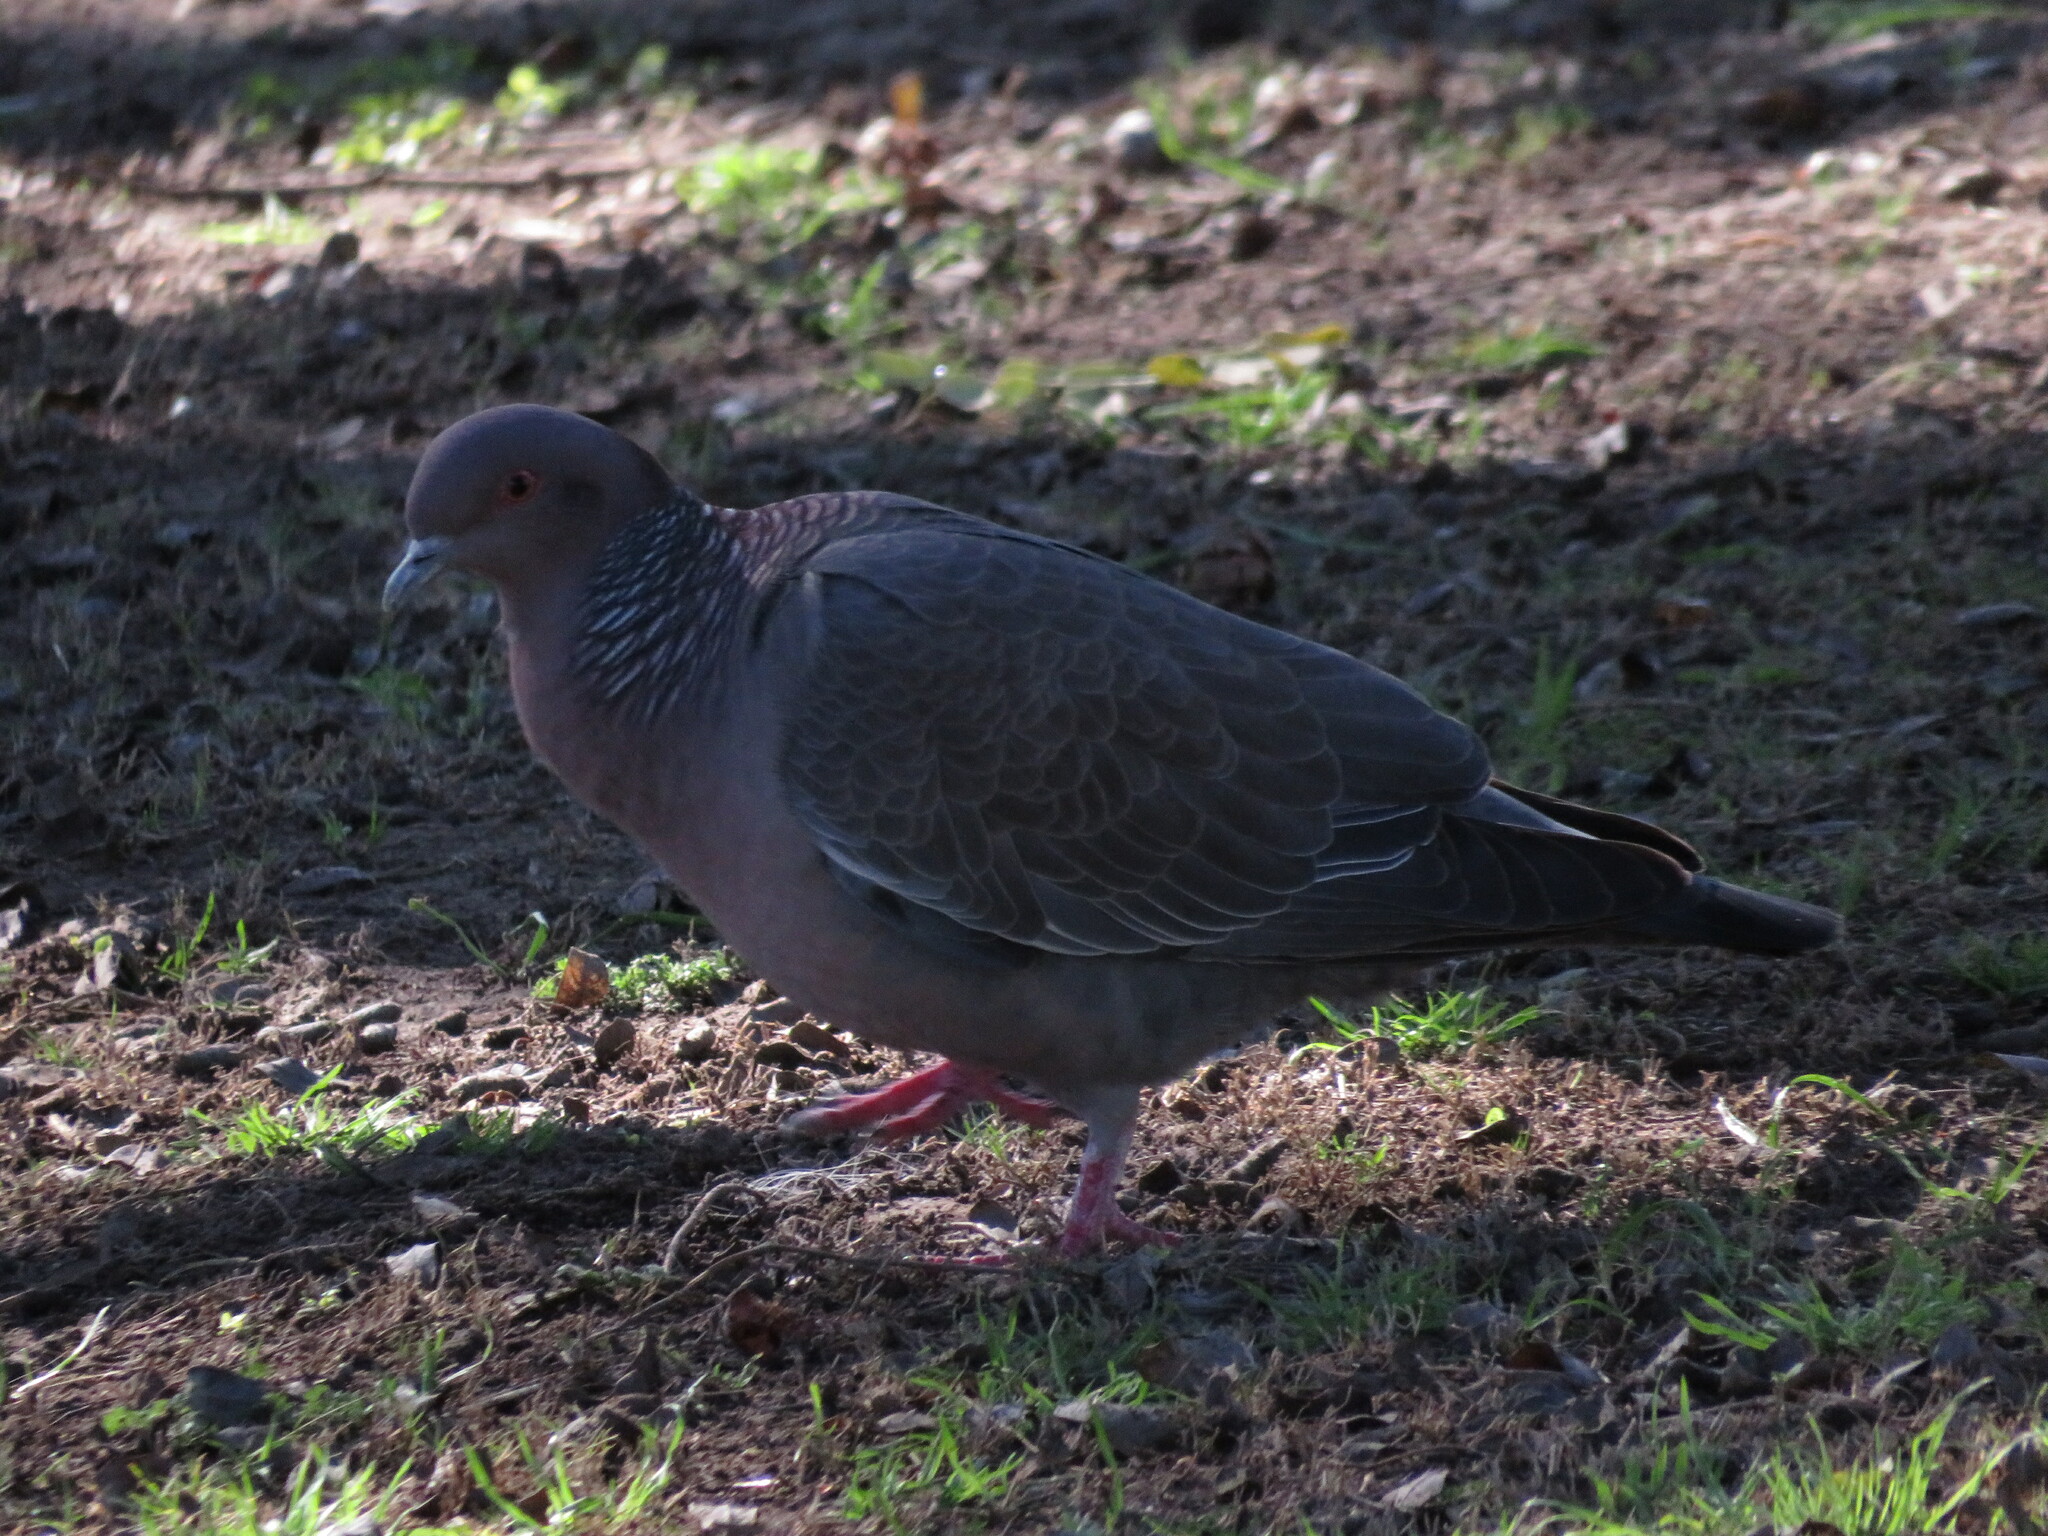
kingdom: Animalia
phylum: Chordata
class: Aves
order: Columbiformes
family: Columbidae
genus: Patagioenas
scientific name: Patagioenas picazuro
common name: Picazuro pigeon
